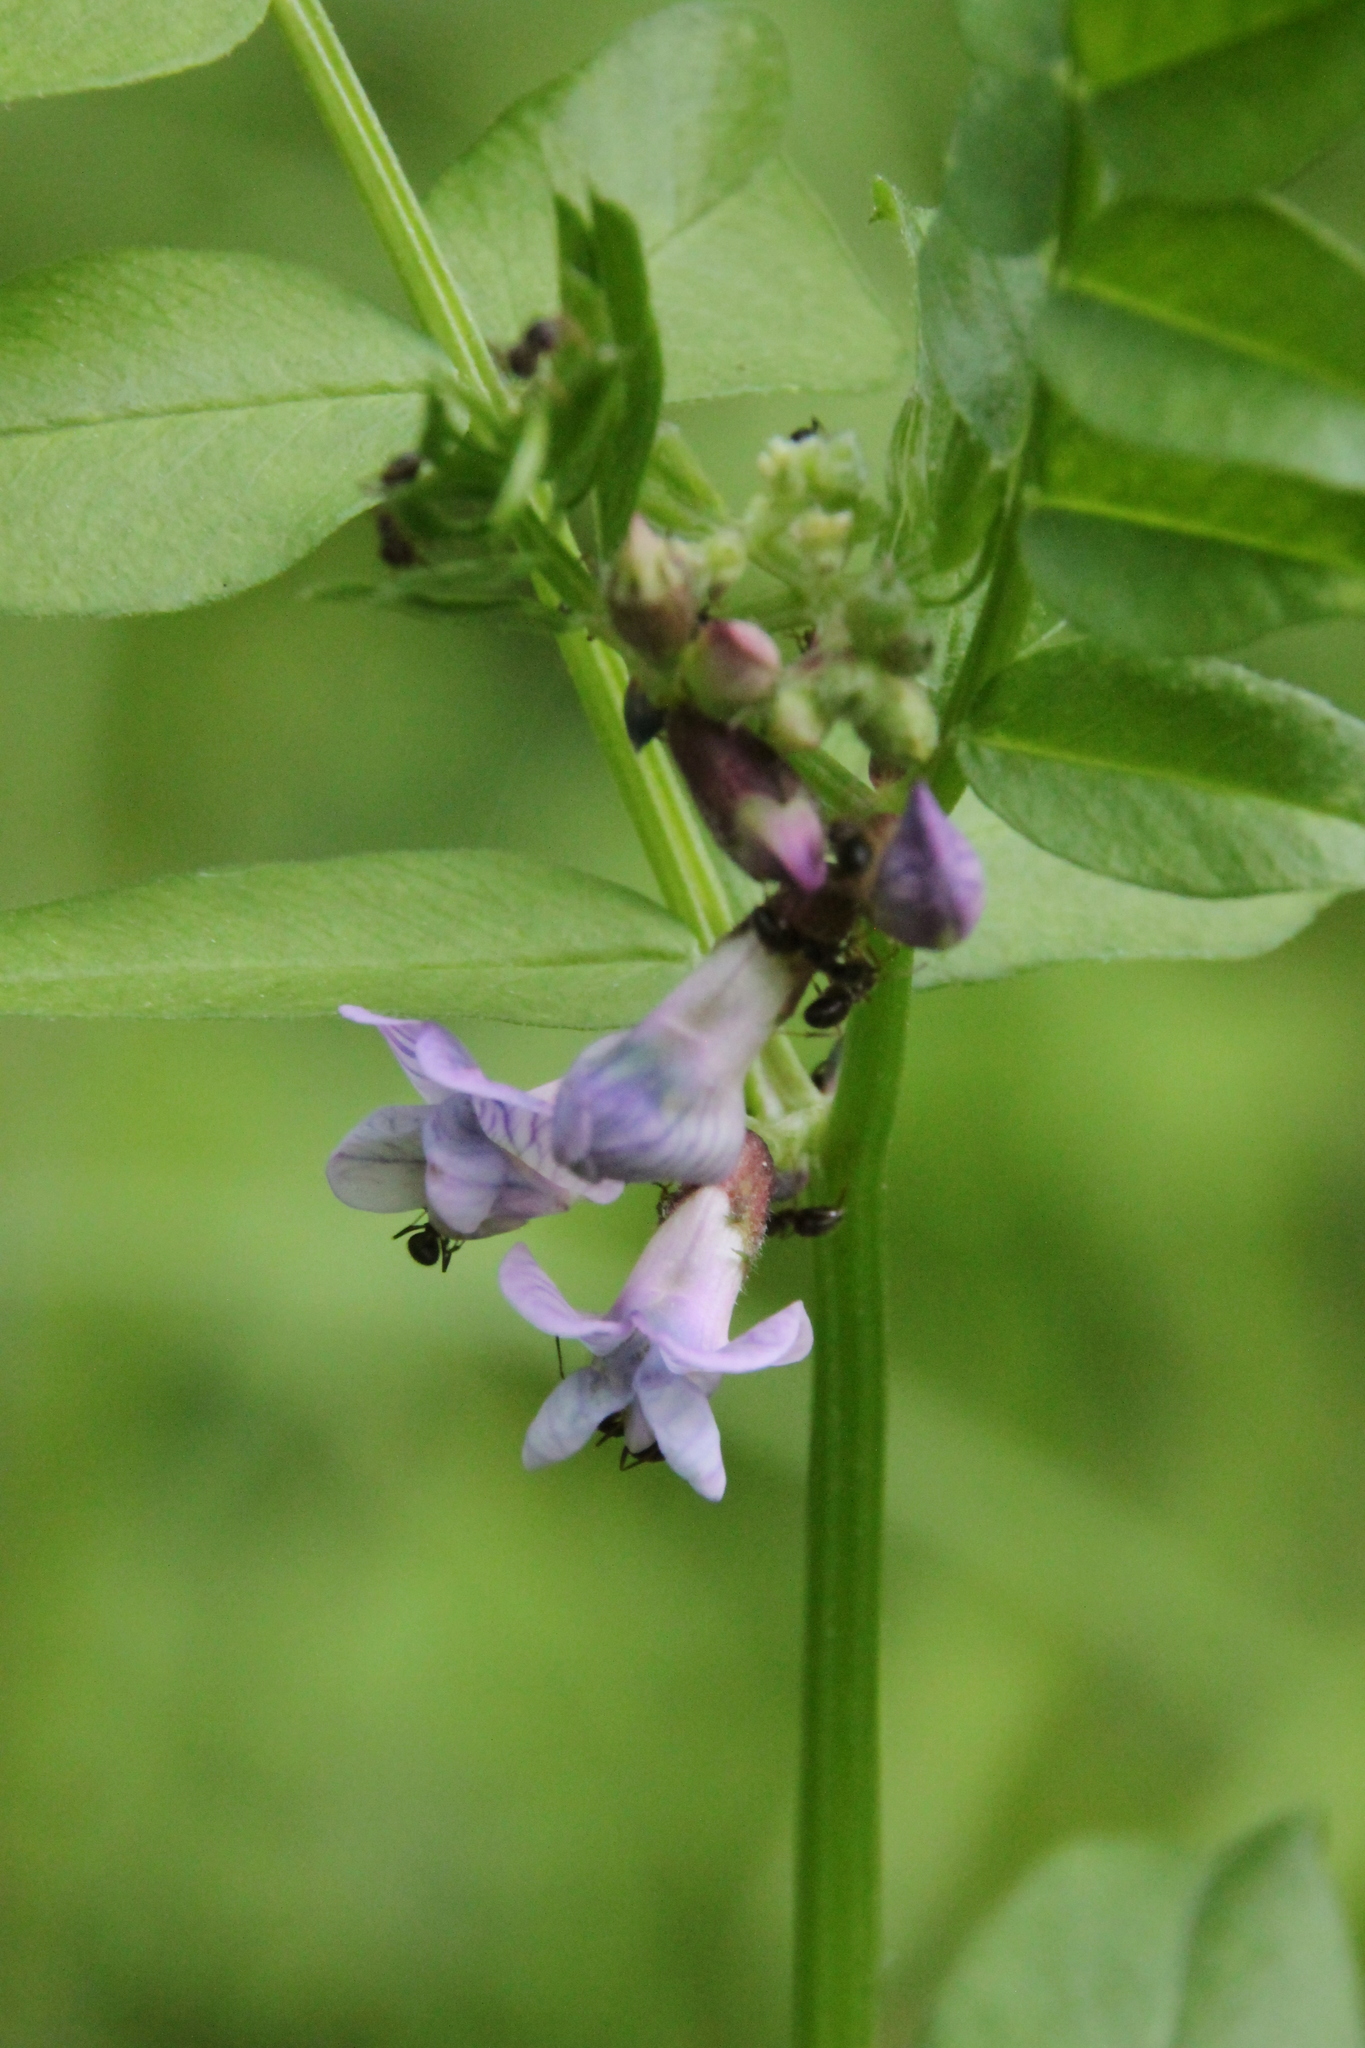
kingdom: Plantae
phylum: Tracheophyta
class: Magnoliopsida
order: Fabales
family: Fabaceae
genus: Vicia
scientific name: Vicia sepium
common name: Bush vetch
